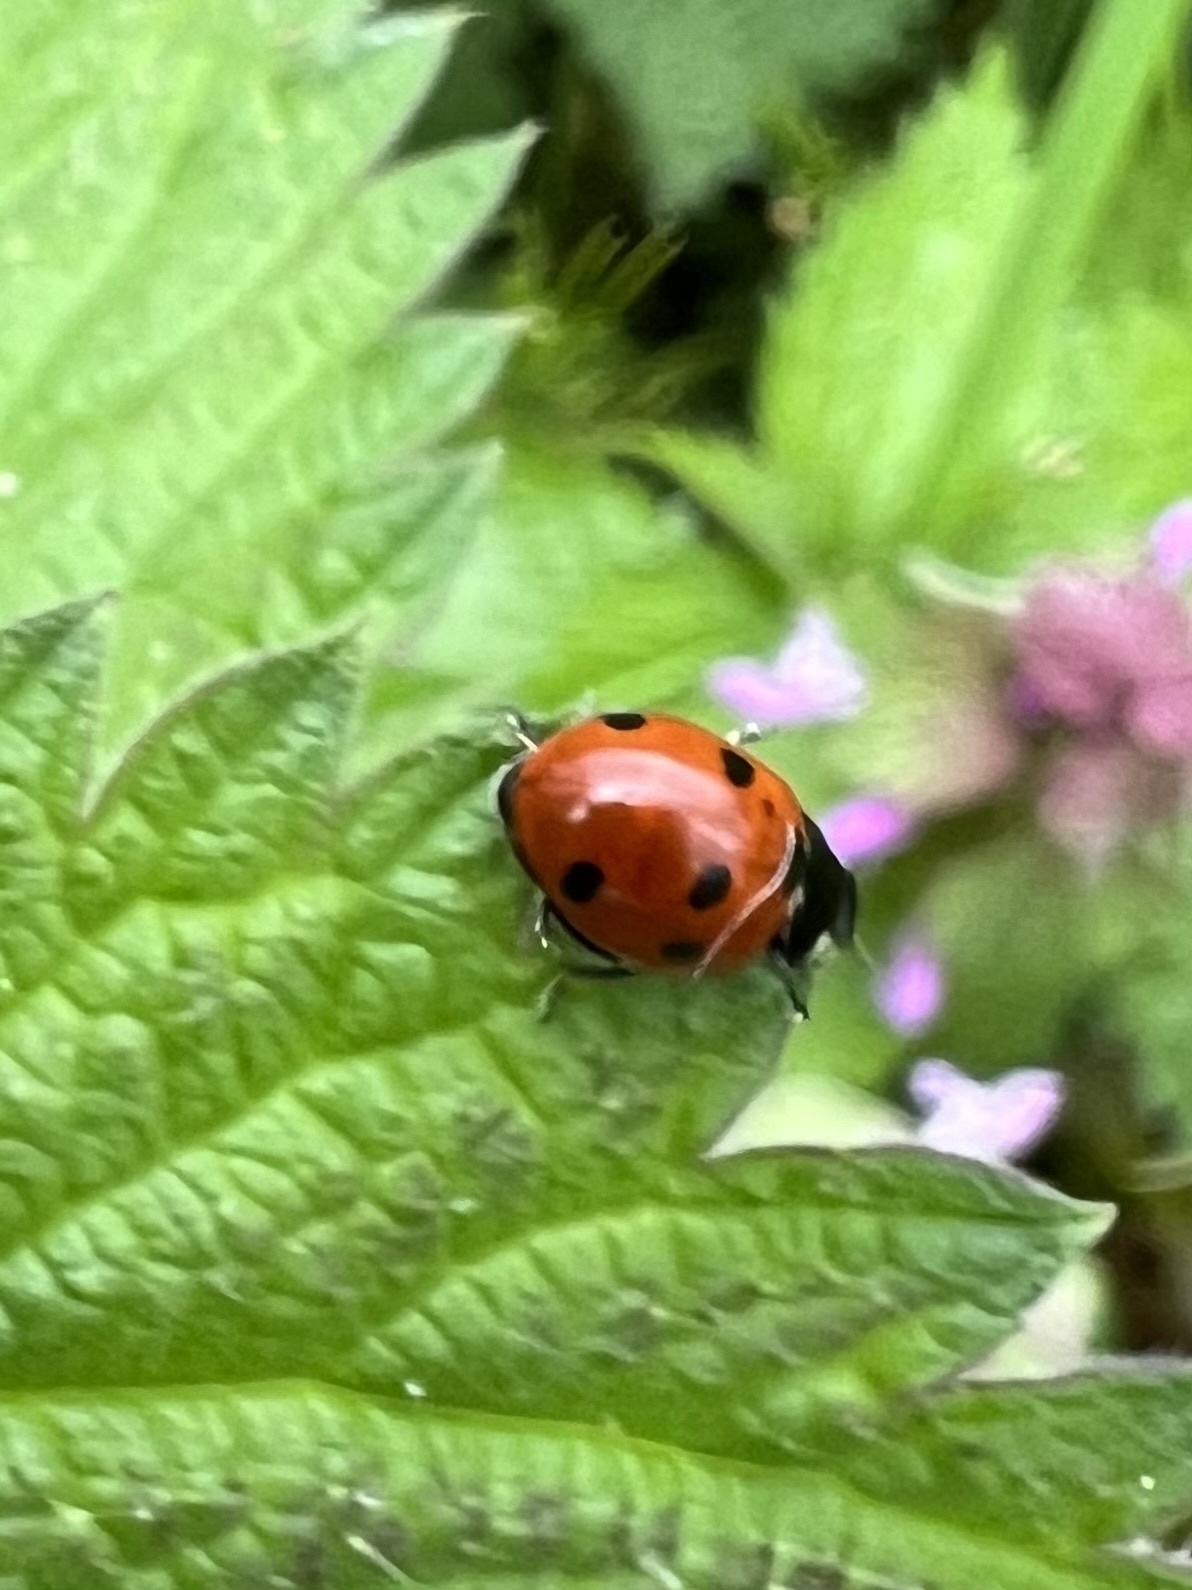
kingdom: Animalia
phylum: Arthropoda
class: Insecta
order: Coleoptera
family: Coccinellidae
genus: Coccinella
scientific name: Coccinella septempunctata
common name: Sevenspotted lady beetle
